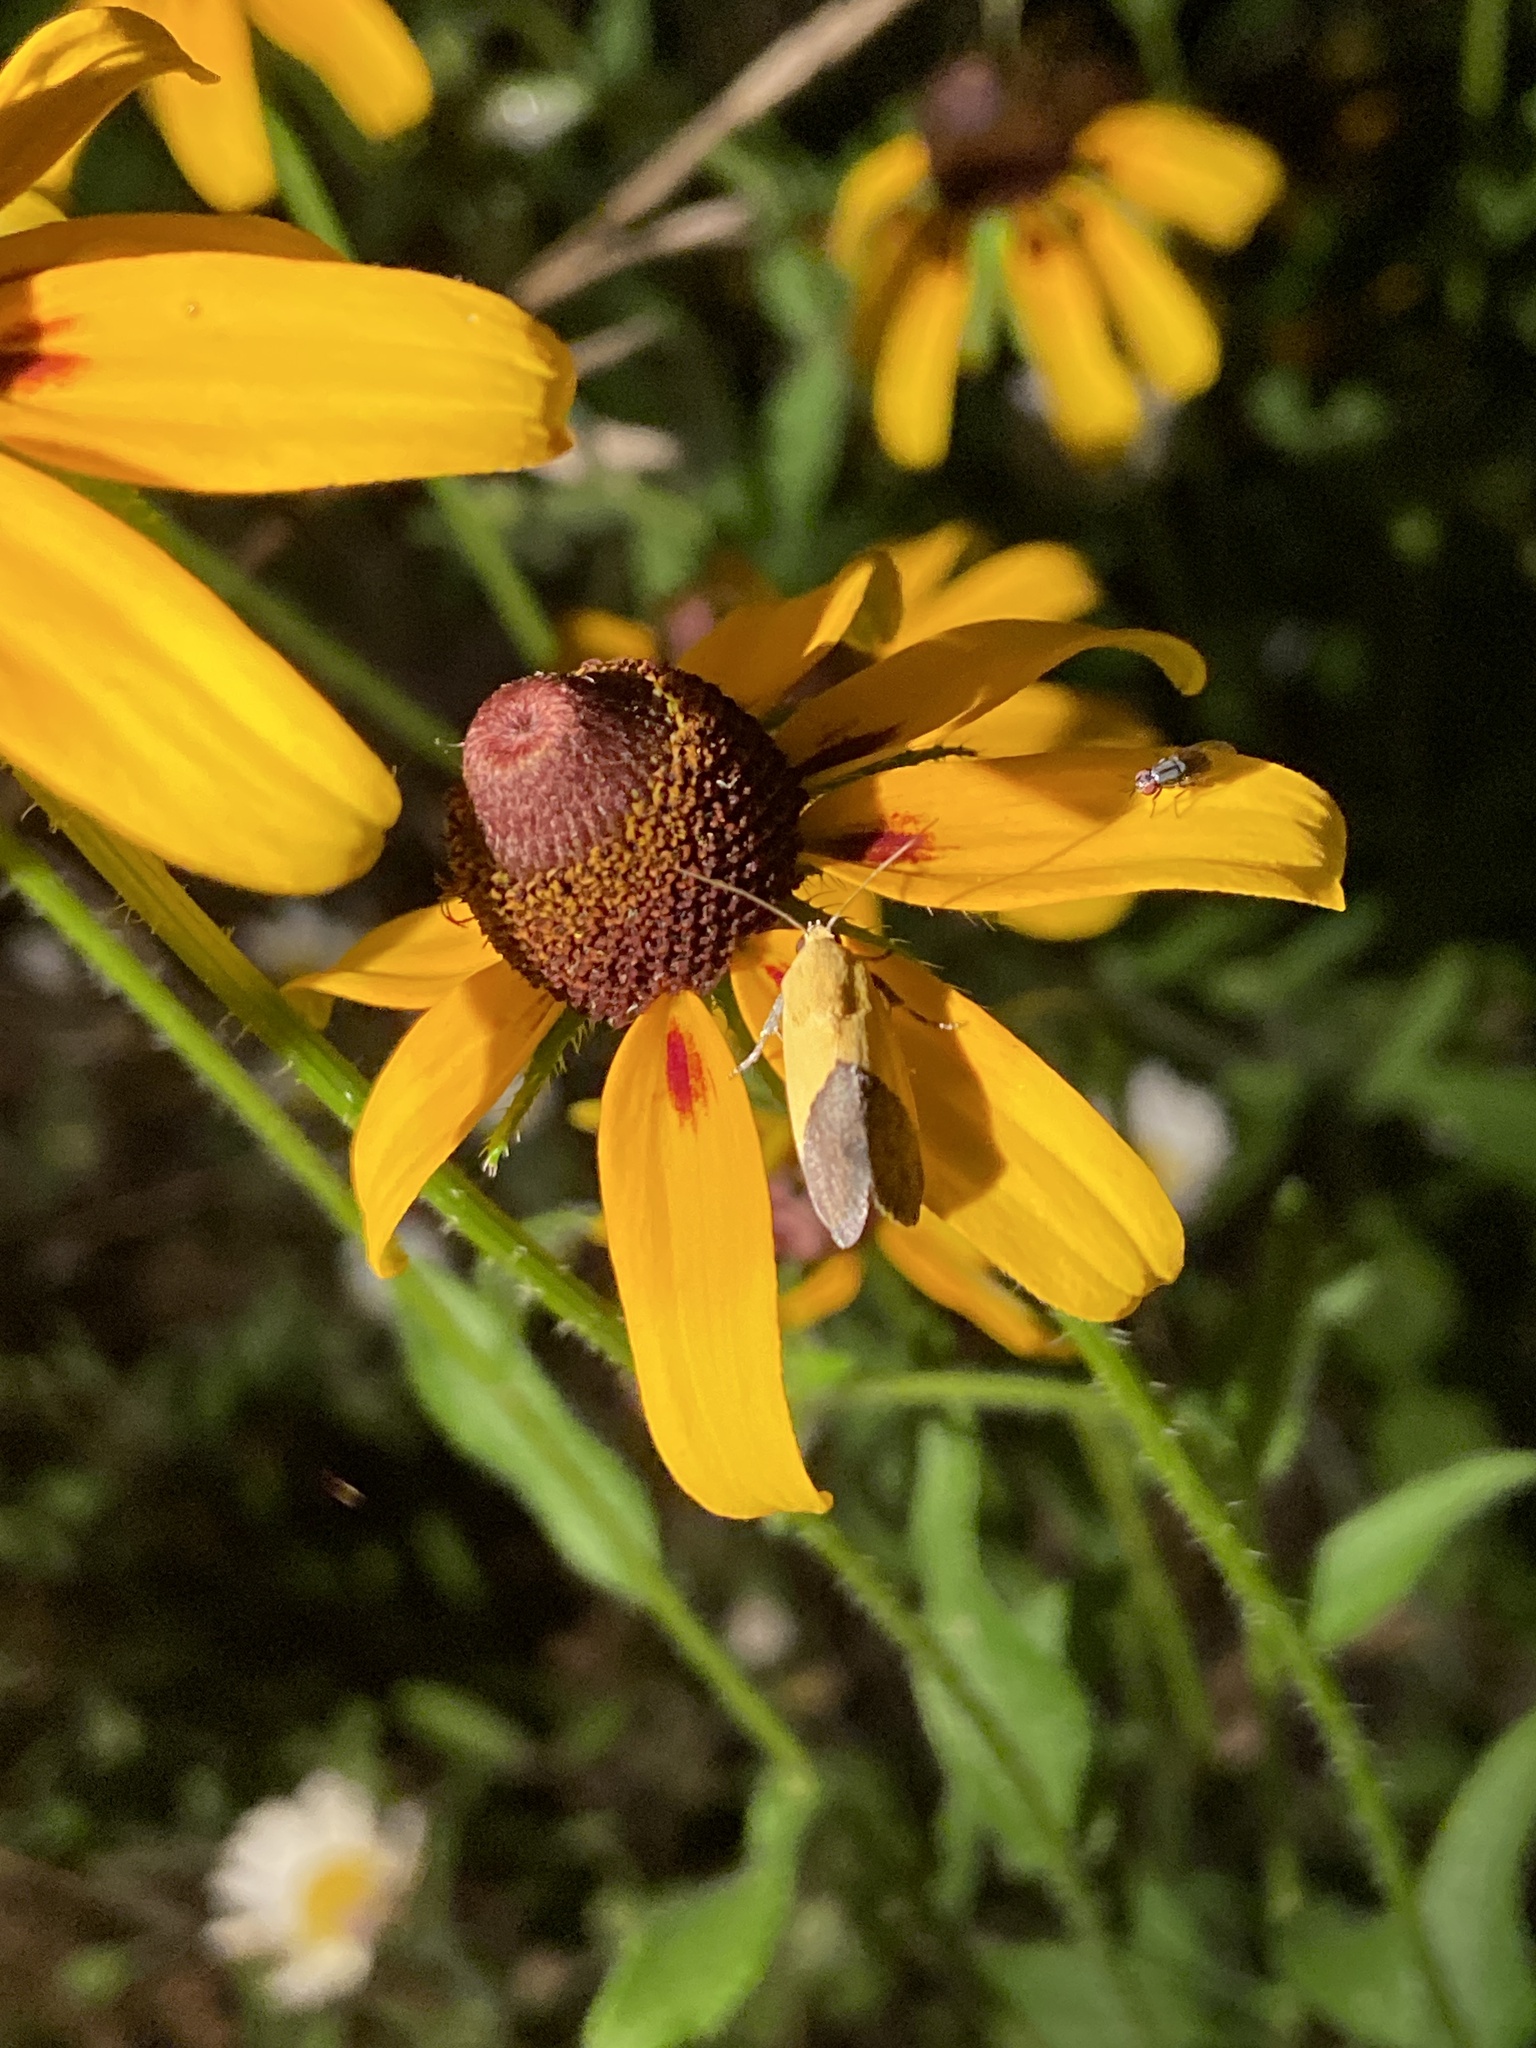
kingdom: Animalia
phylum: Arthropoda
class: Insecta
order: Lepidoptera
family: Noctuidae
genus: Acontia
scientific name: Acontia semiflava
